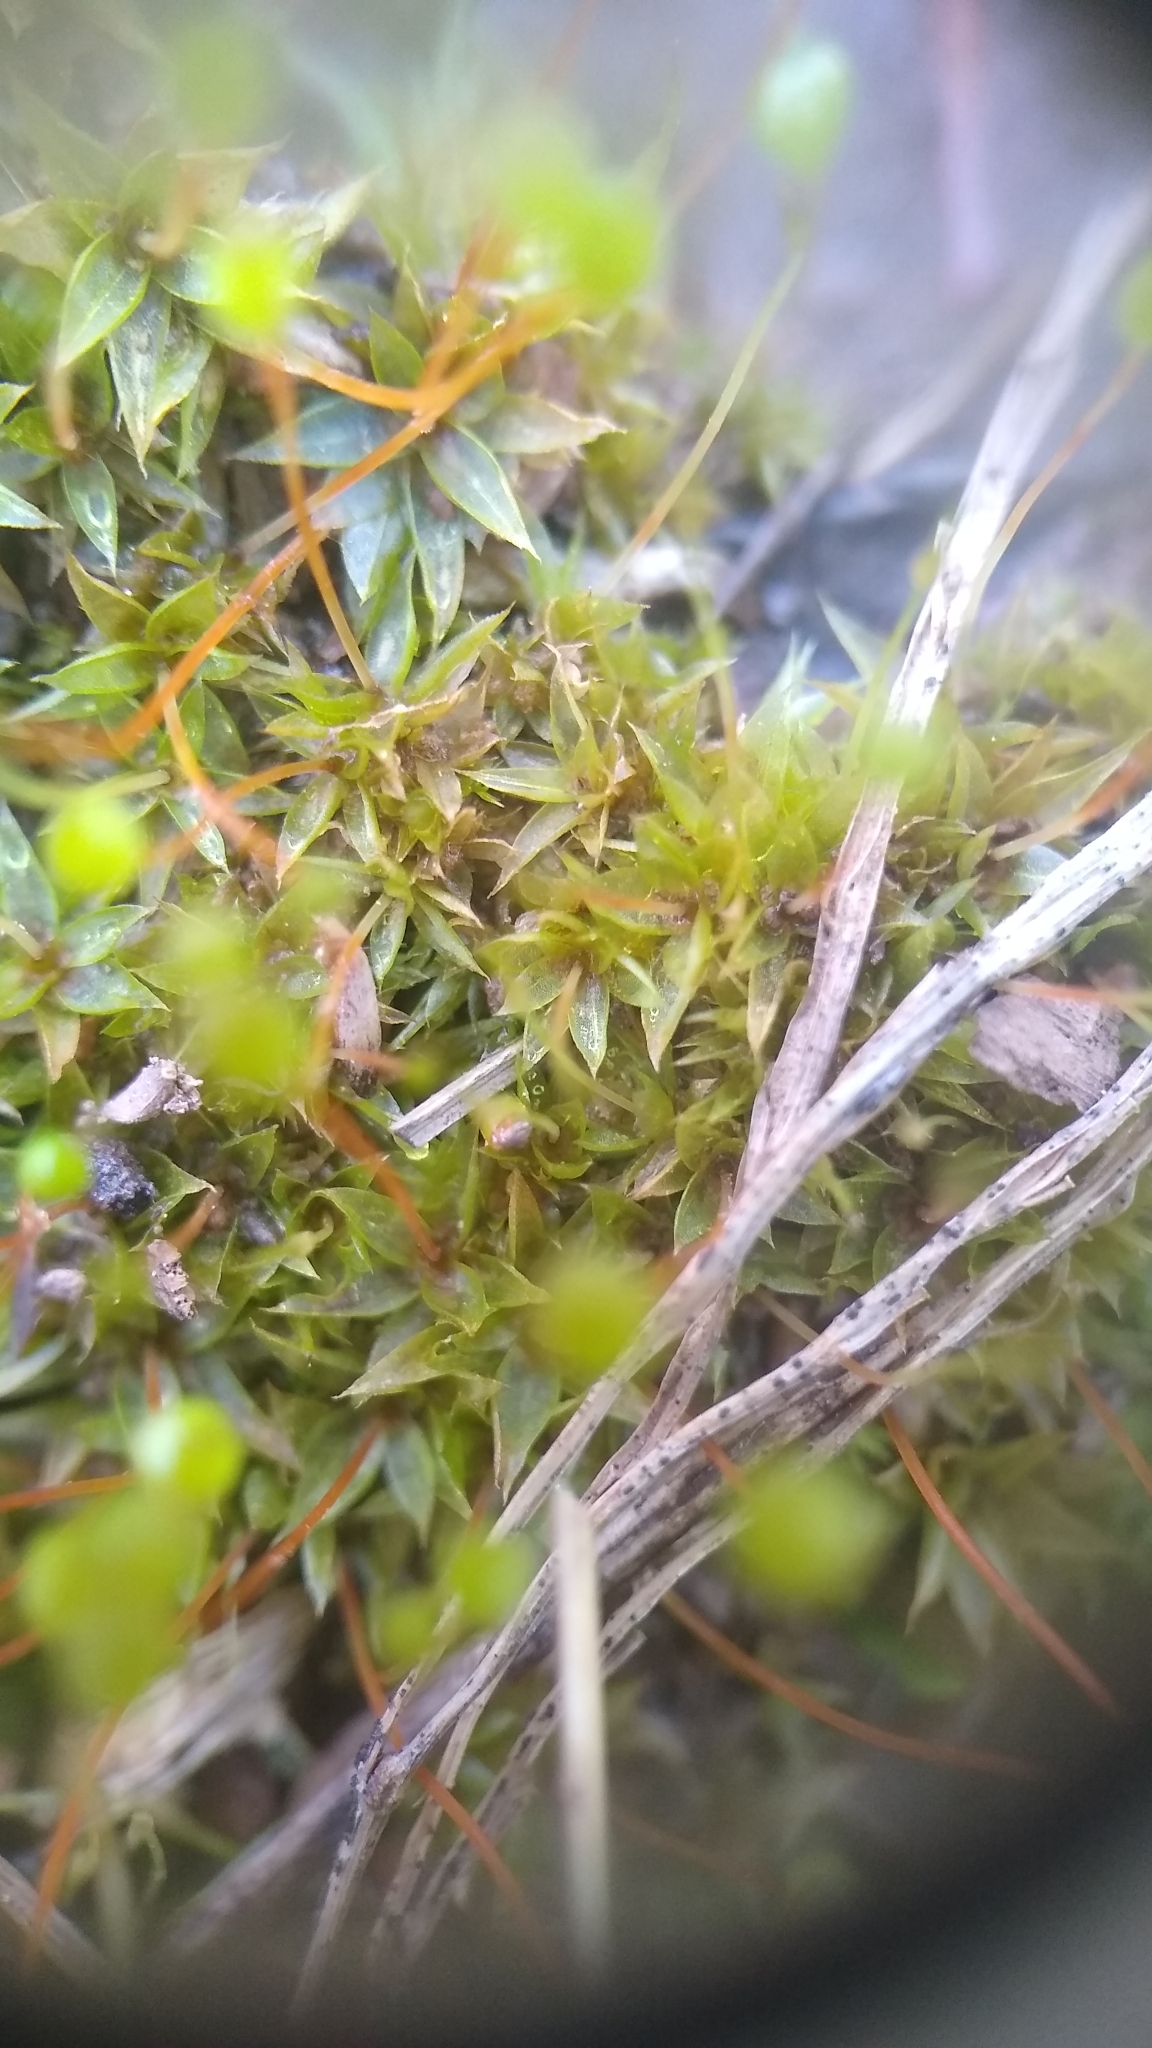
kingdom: Plantae
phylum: Bryophyta
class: Bryopsida
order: Funariales
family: Funariaceae
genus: Physcomitrium
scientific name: Physcomitrium pyriforme
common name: Common bladder-moss
